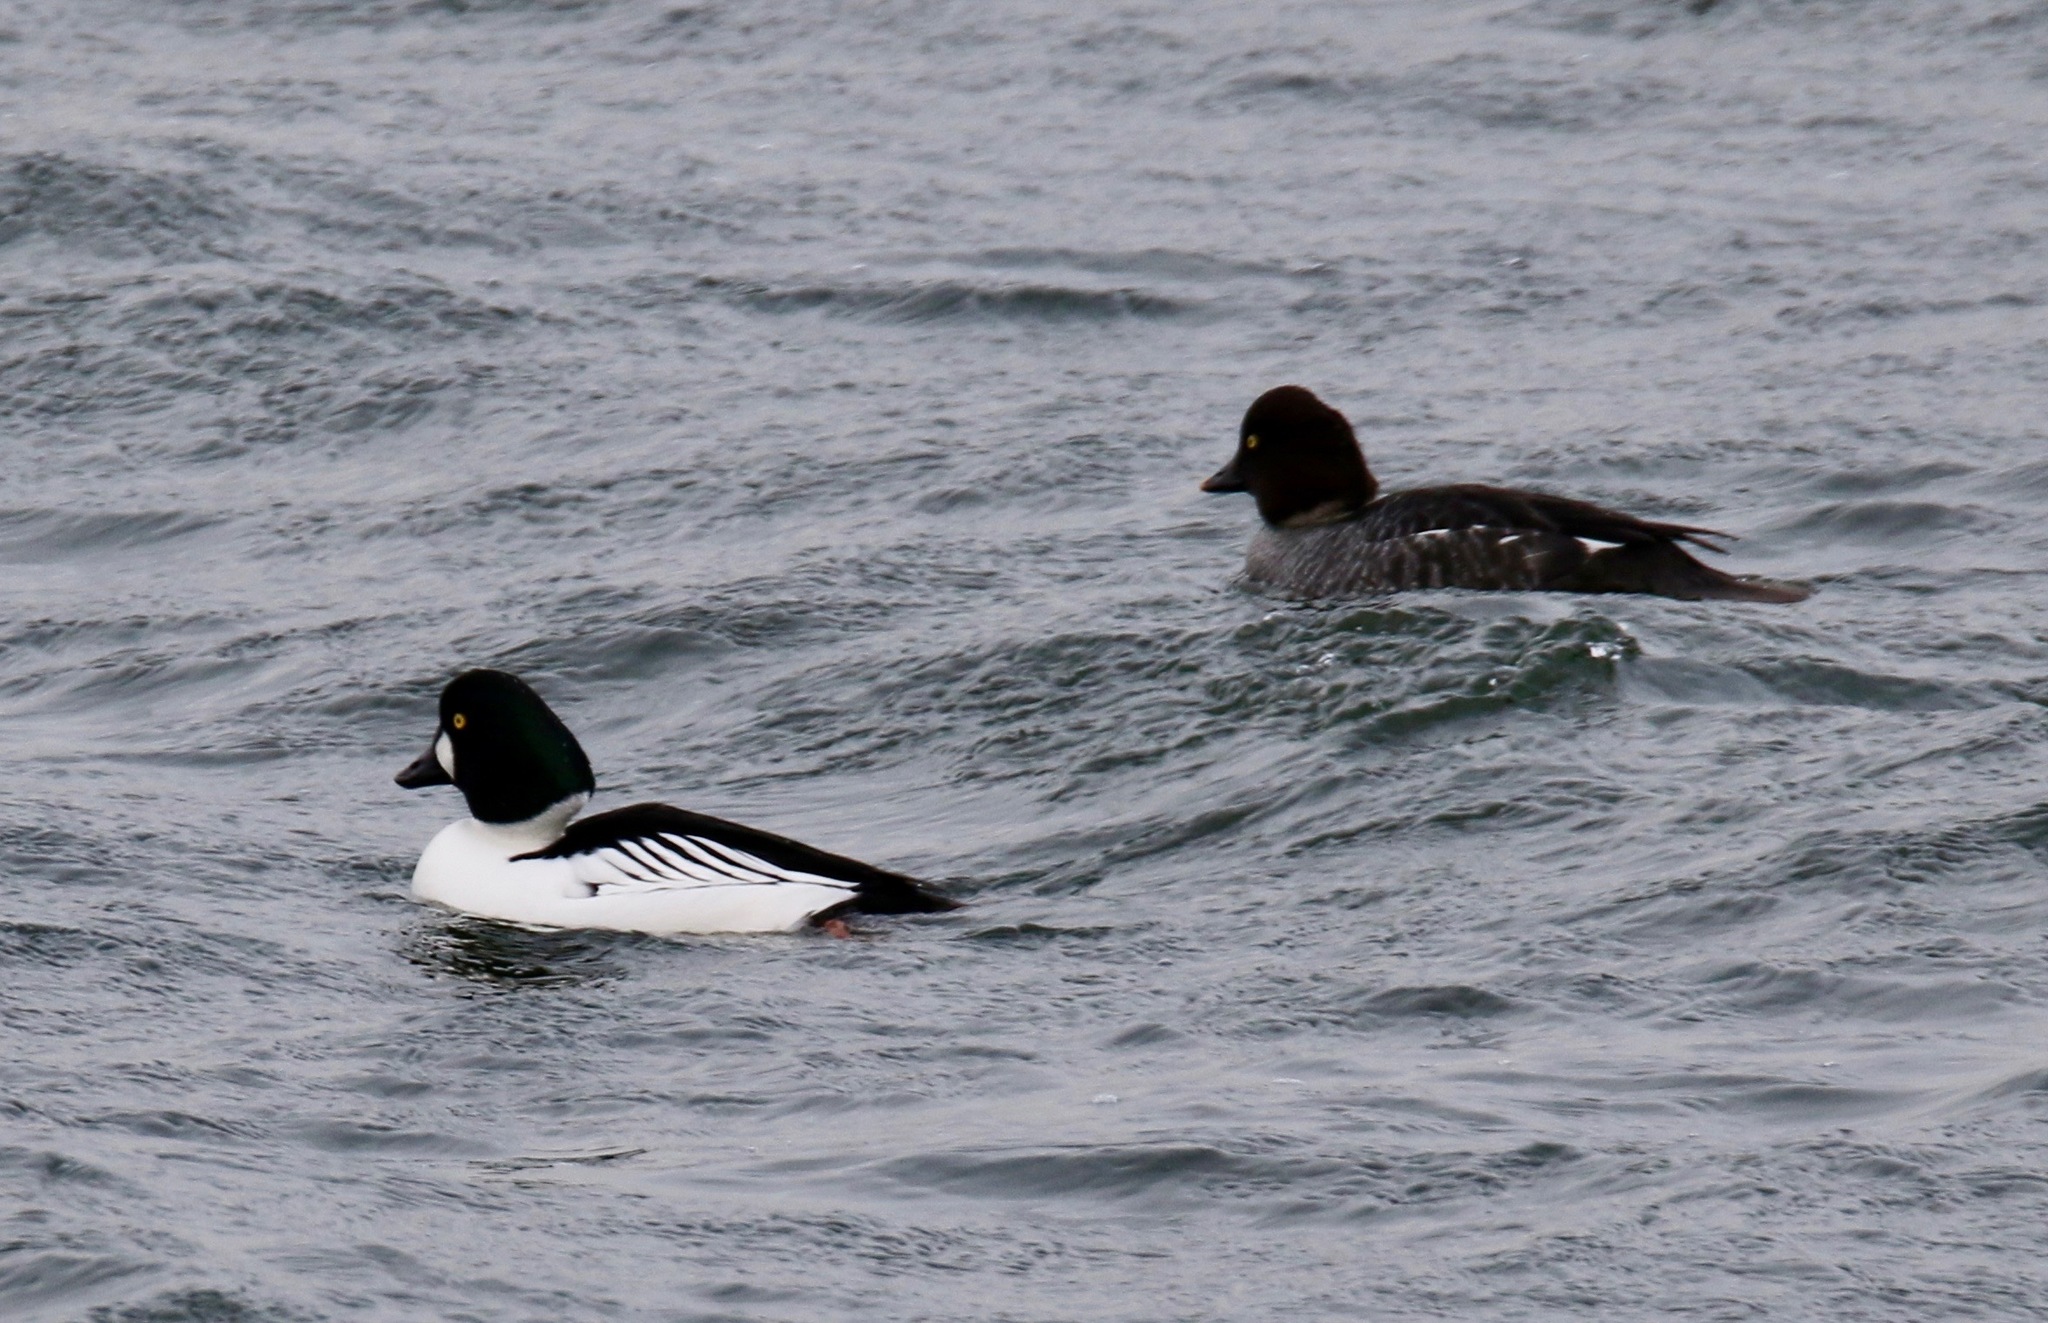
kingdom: Animalia
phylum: Chordata
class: Aves
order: Anseriformes
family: Anatidae
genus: Bucephala
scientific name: Bucephala clangula
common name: Common goldeneye
